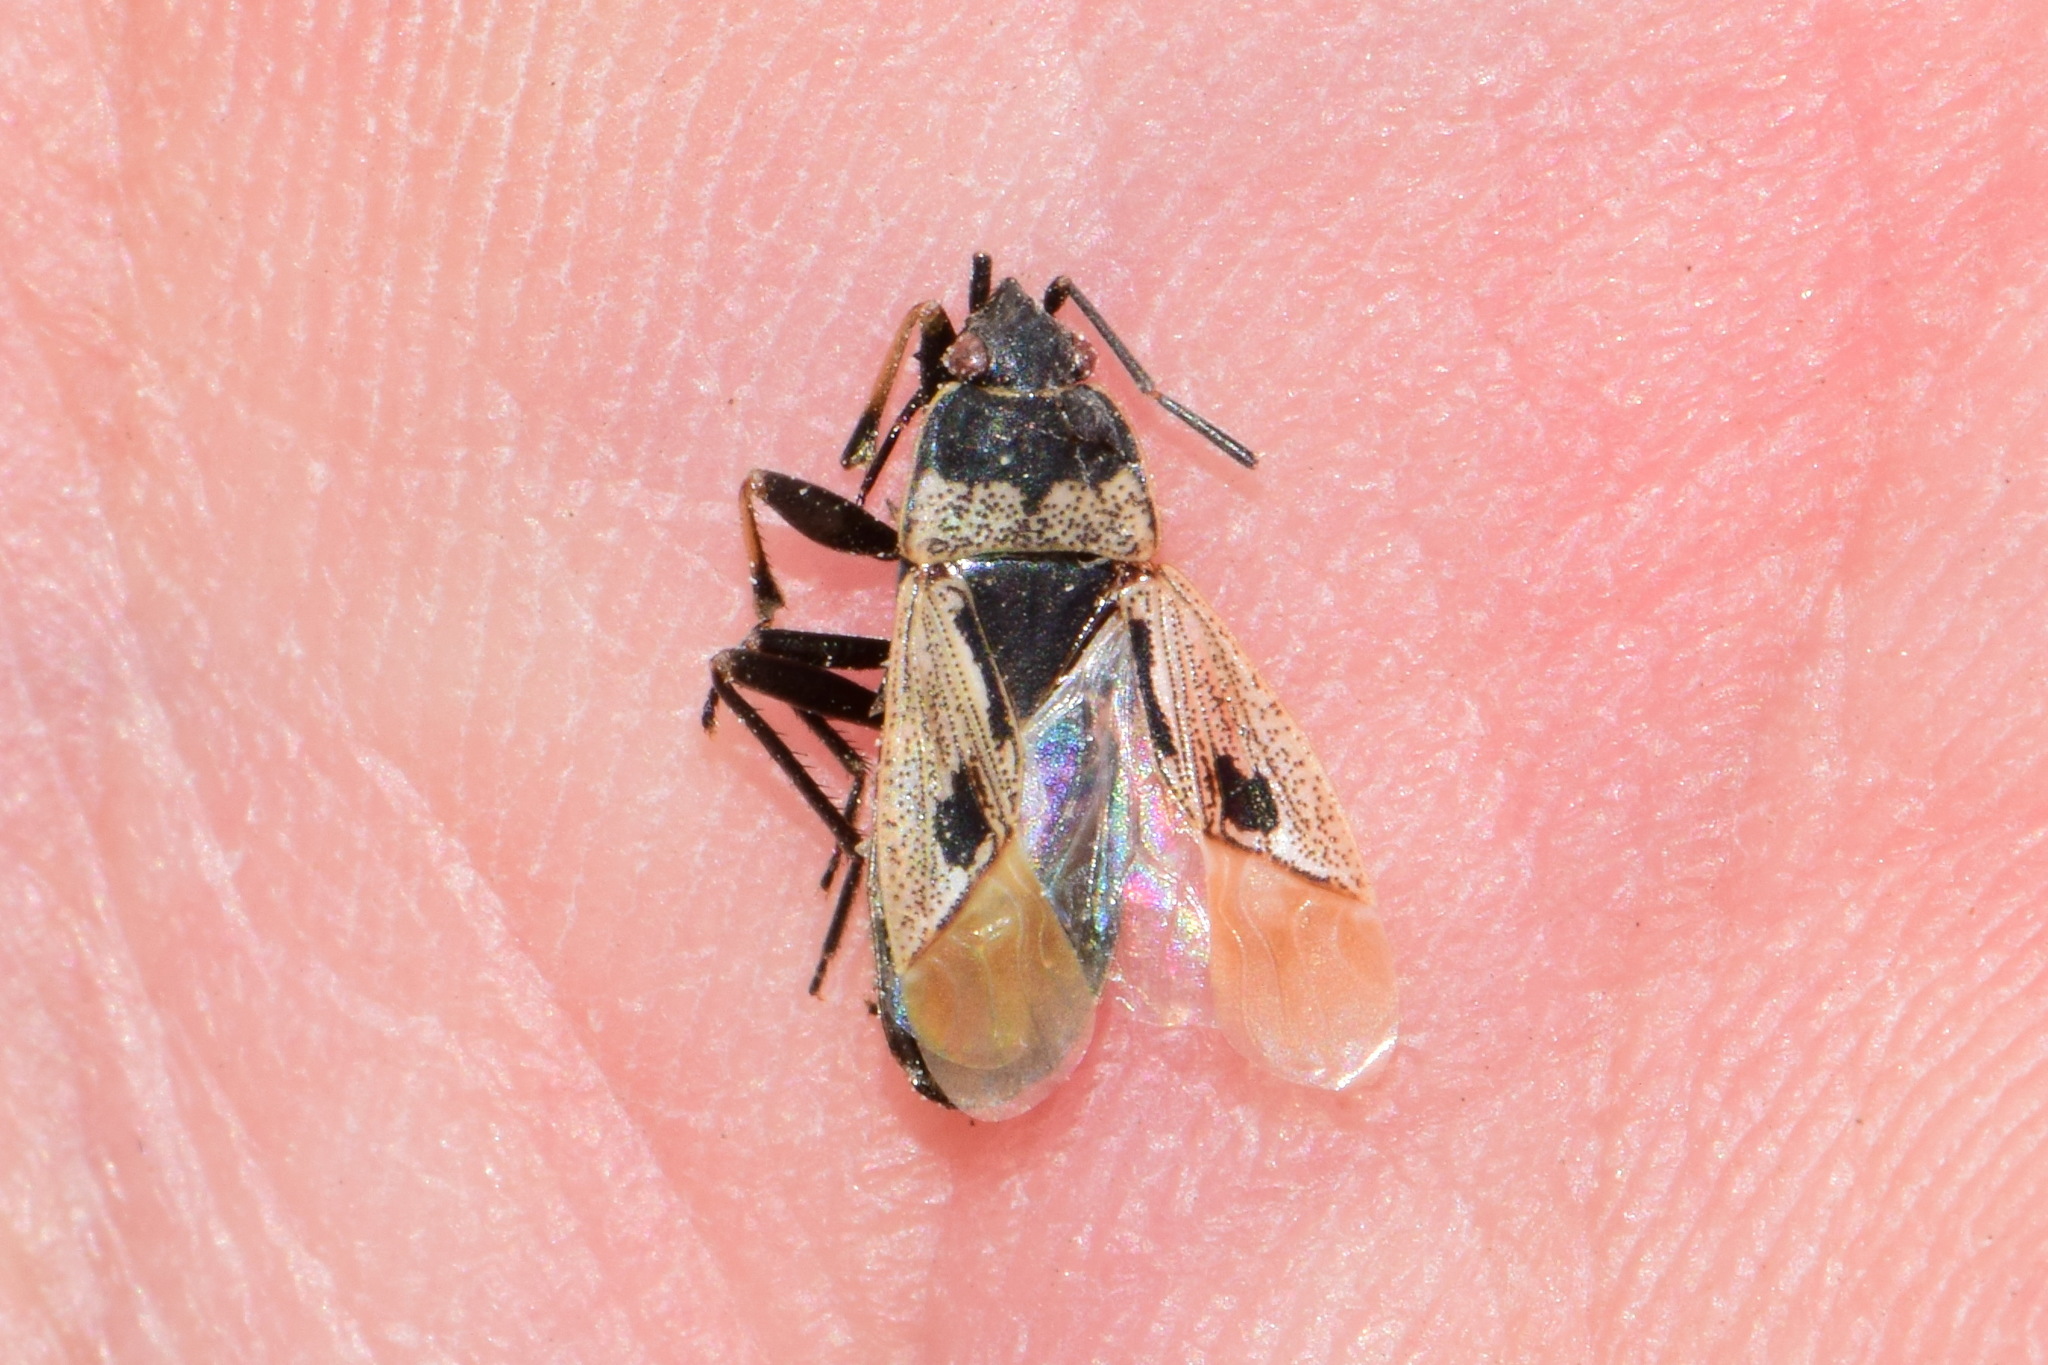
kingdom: Animalia
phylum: Arthropoda
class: Insecta
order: Hemiptera
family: Rhyparochromidae
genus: Rhyparochromus
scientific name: Rhyparochromus pini
